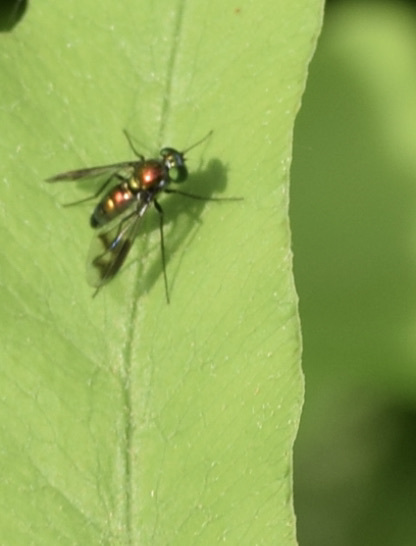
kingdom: Animalia
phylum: Arthropoda
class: Insecta
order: Diptera
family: Dolichopodidae
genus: Condylostylus
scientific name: Condylostylus patibulatus
